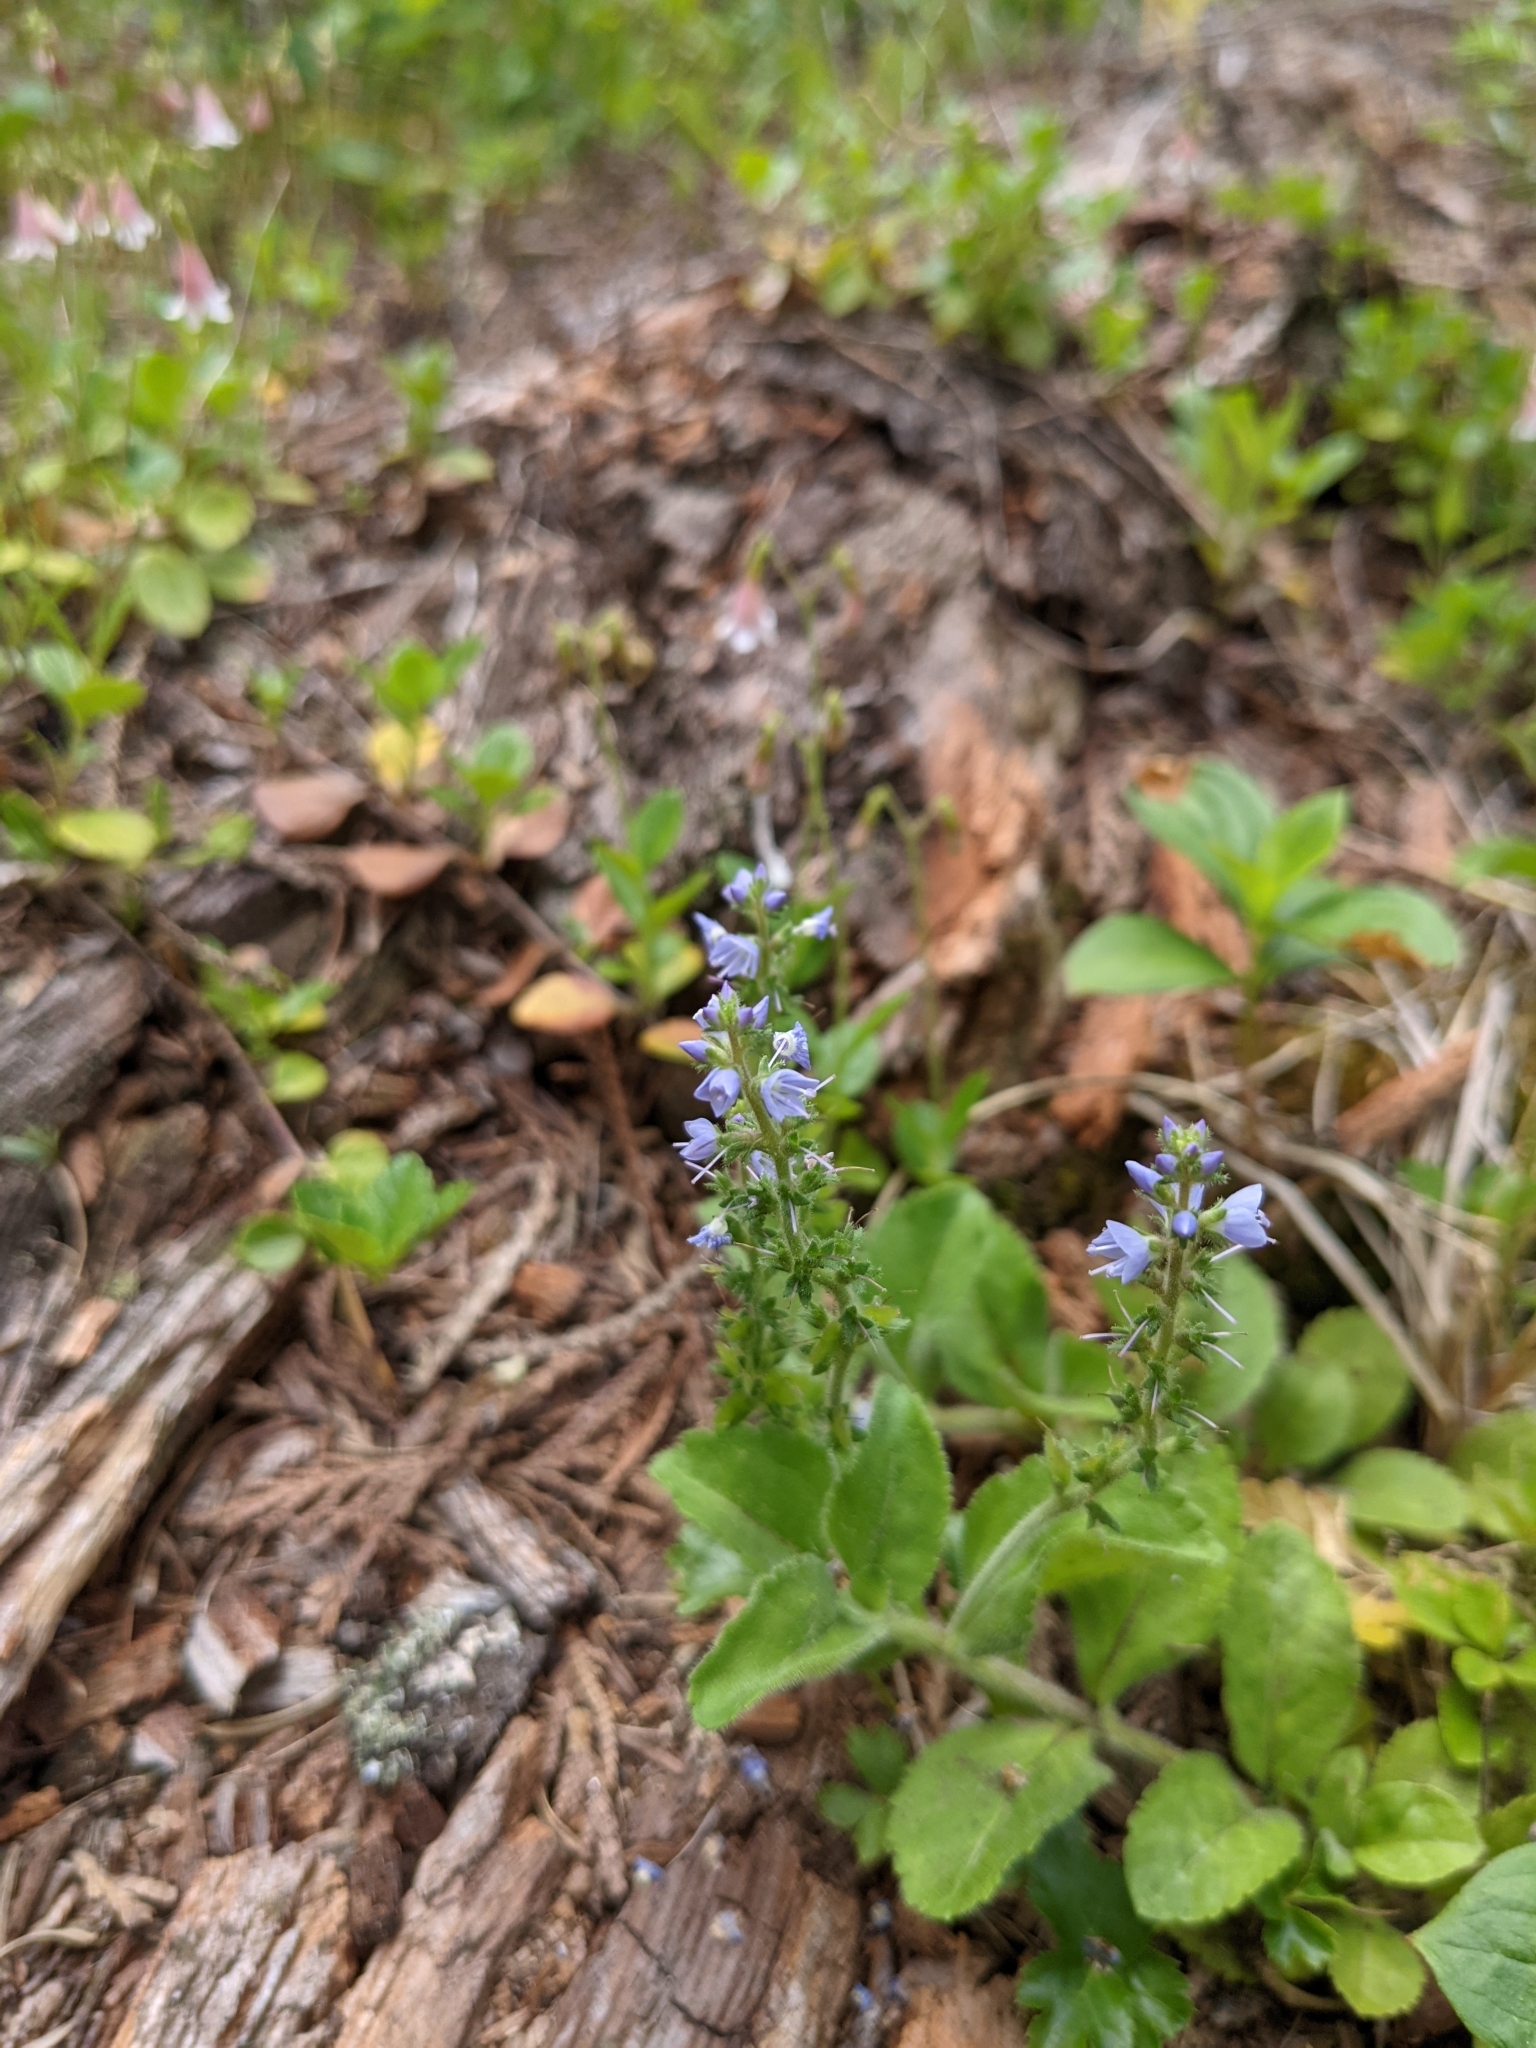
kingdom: Plantae
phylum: Tracheophyta
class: Magnoliopsida
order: Lamiales
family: Plantaginaceae
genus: Veronica
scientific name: Veronica officinalis
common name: Common speedwell
